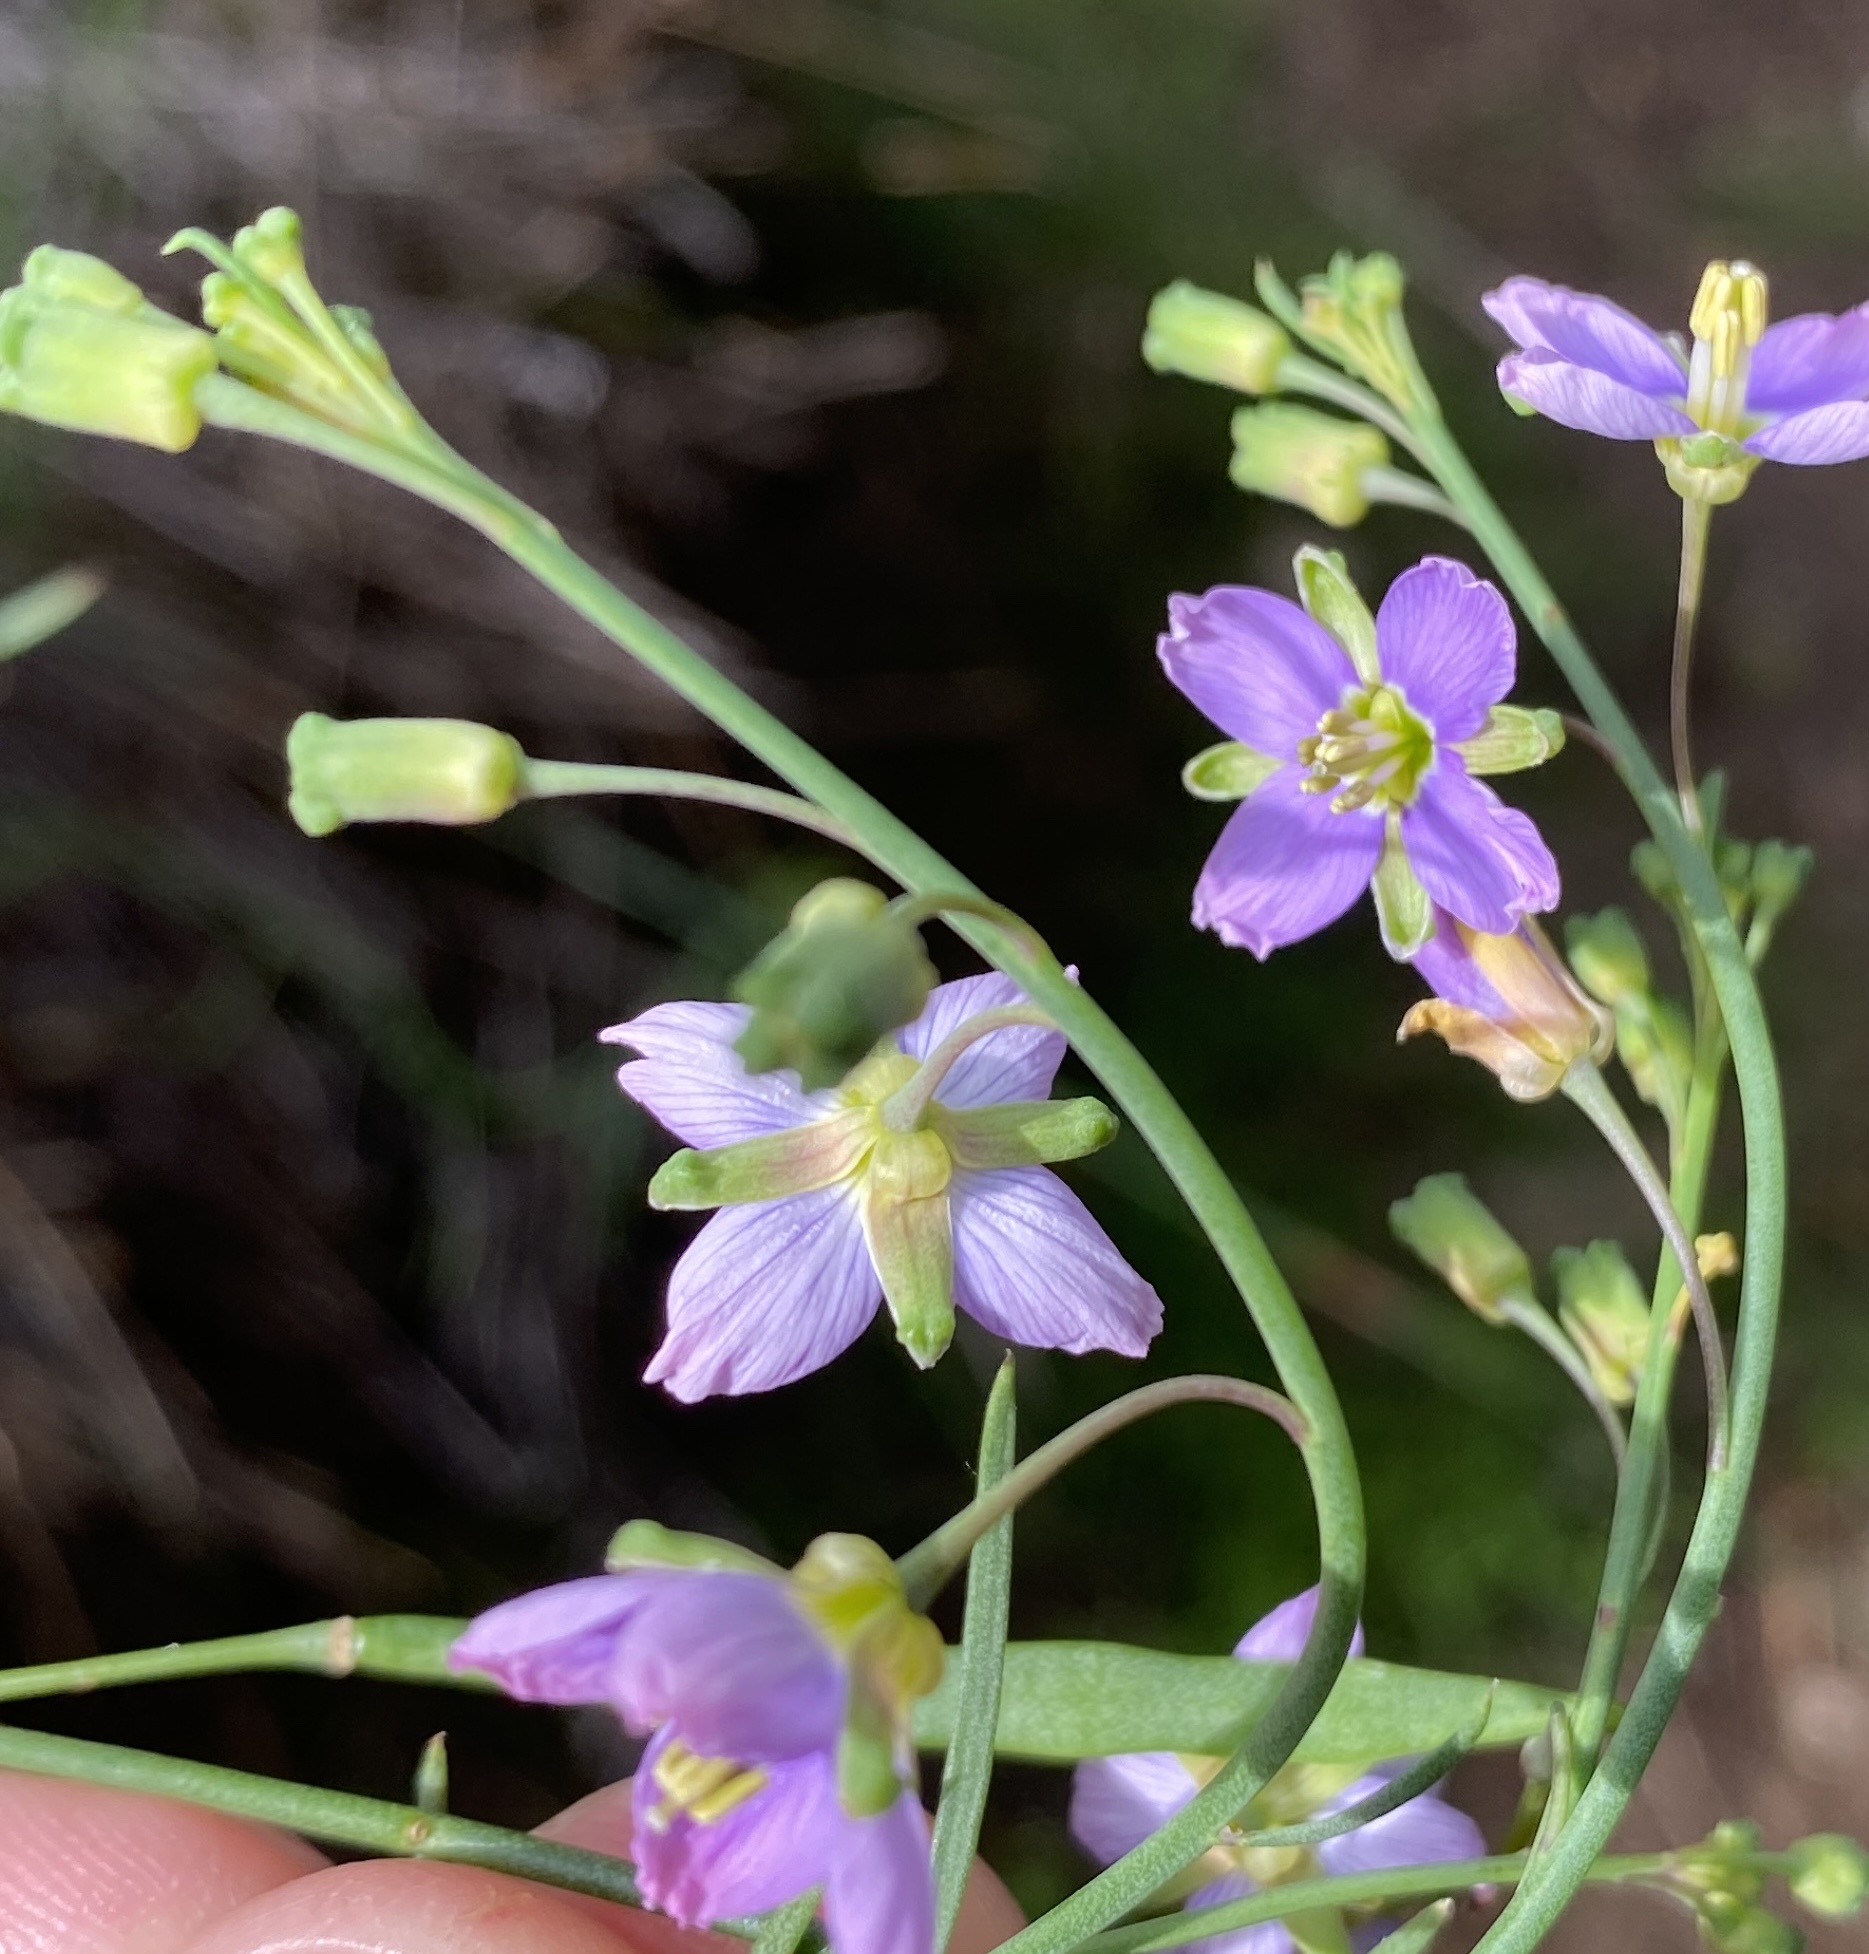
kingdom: Plantae
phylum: Tracheophyta
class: Magnoliopsida
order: Brassicales
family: Brassicaceae
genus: Heliophila
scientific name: Heliophila linearis
